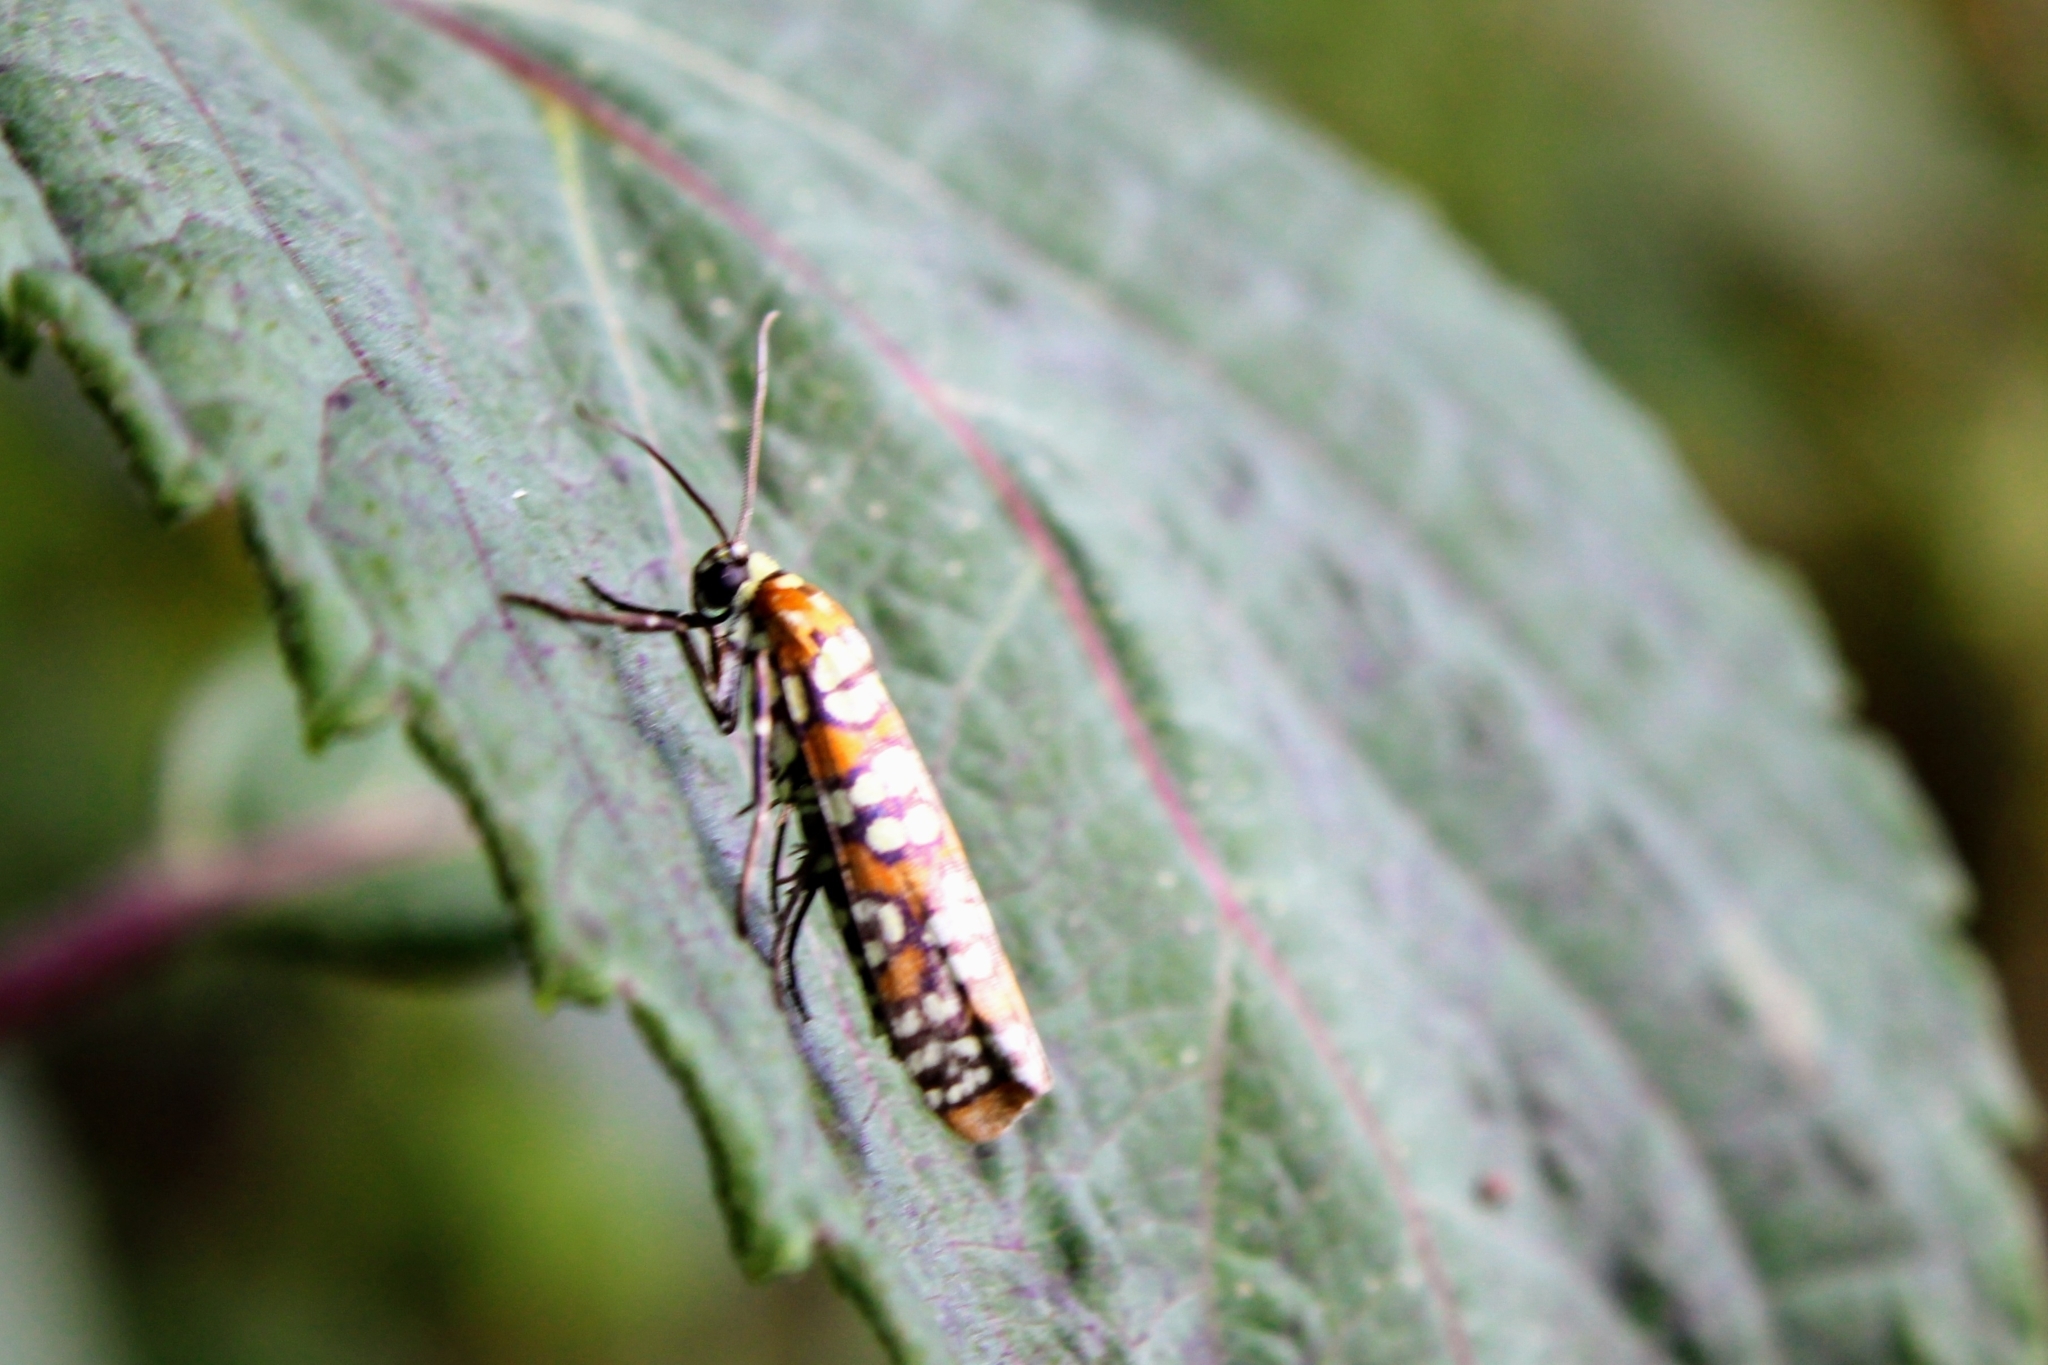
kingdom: Animalia
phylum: Arthropoda
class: Insecta
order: Lepidoptera
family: Attevidae
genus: Atteva
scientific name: Atteva punctella
